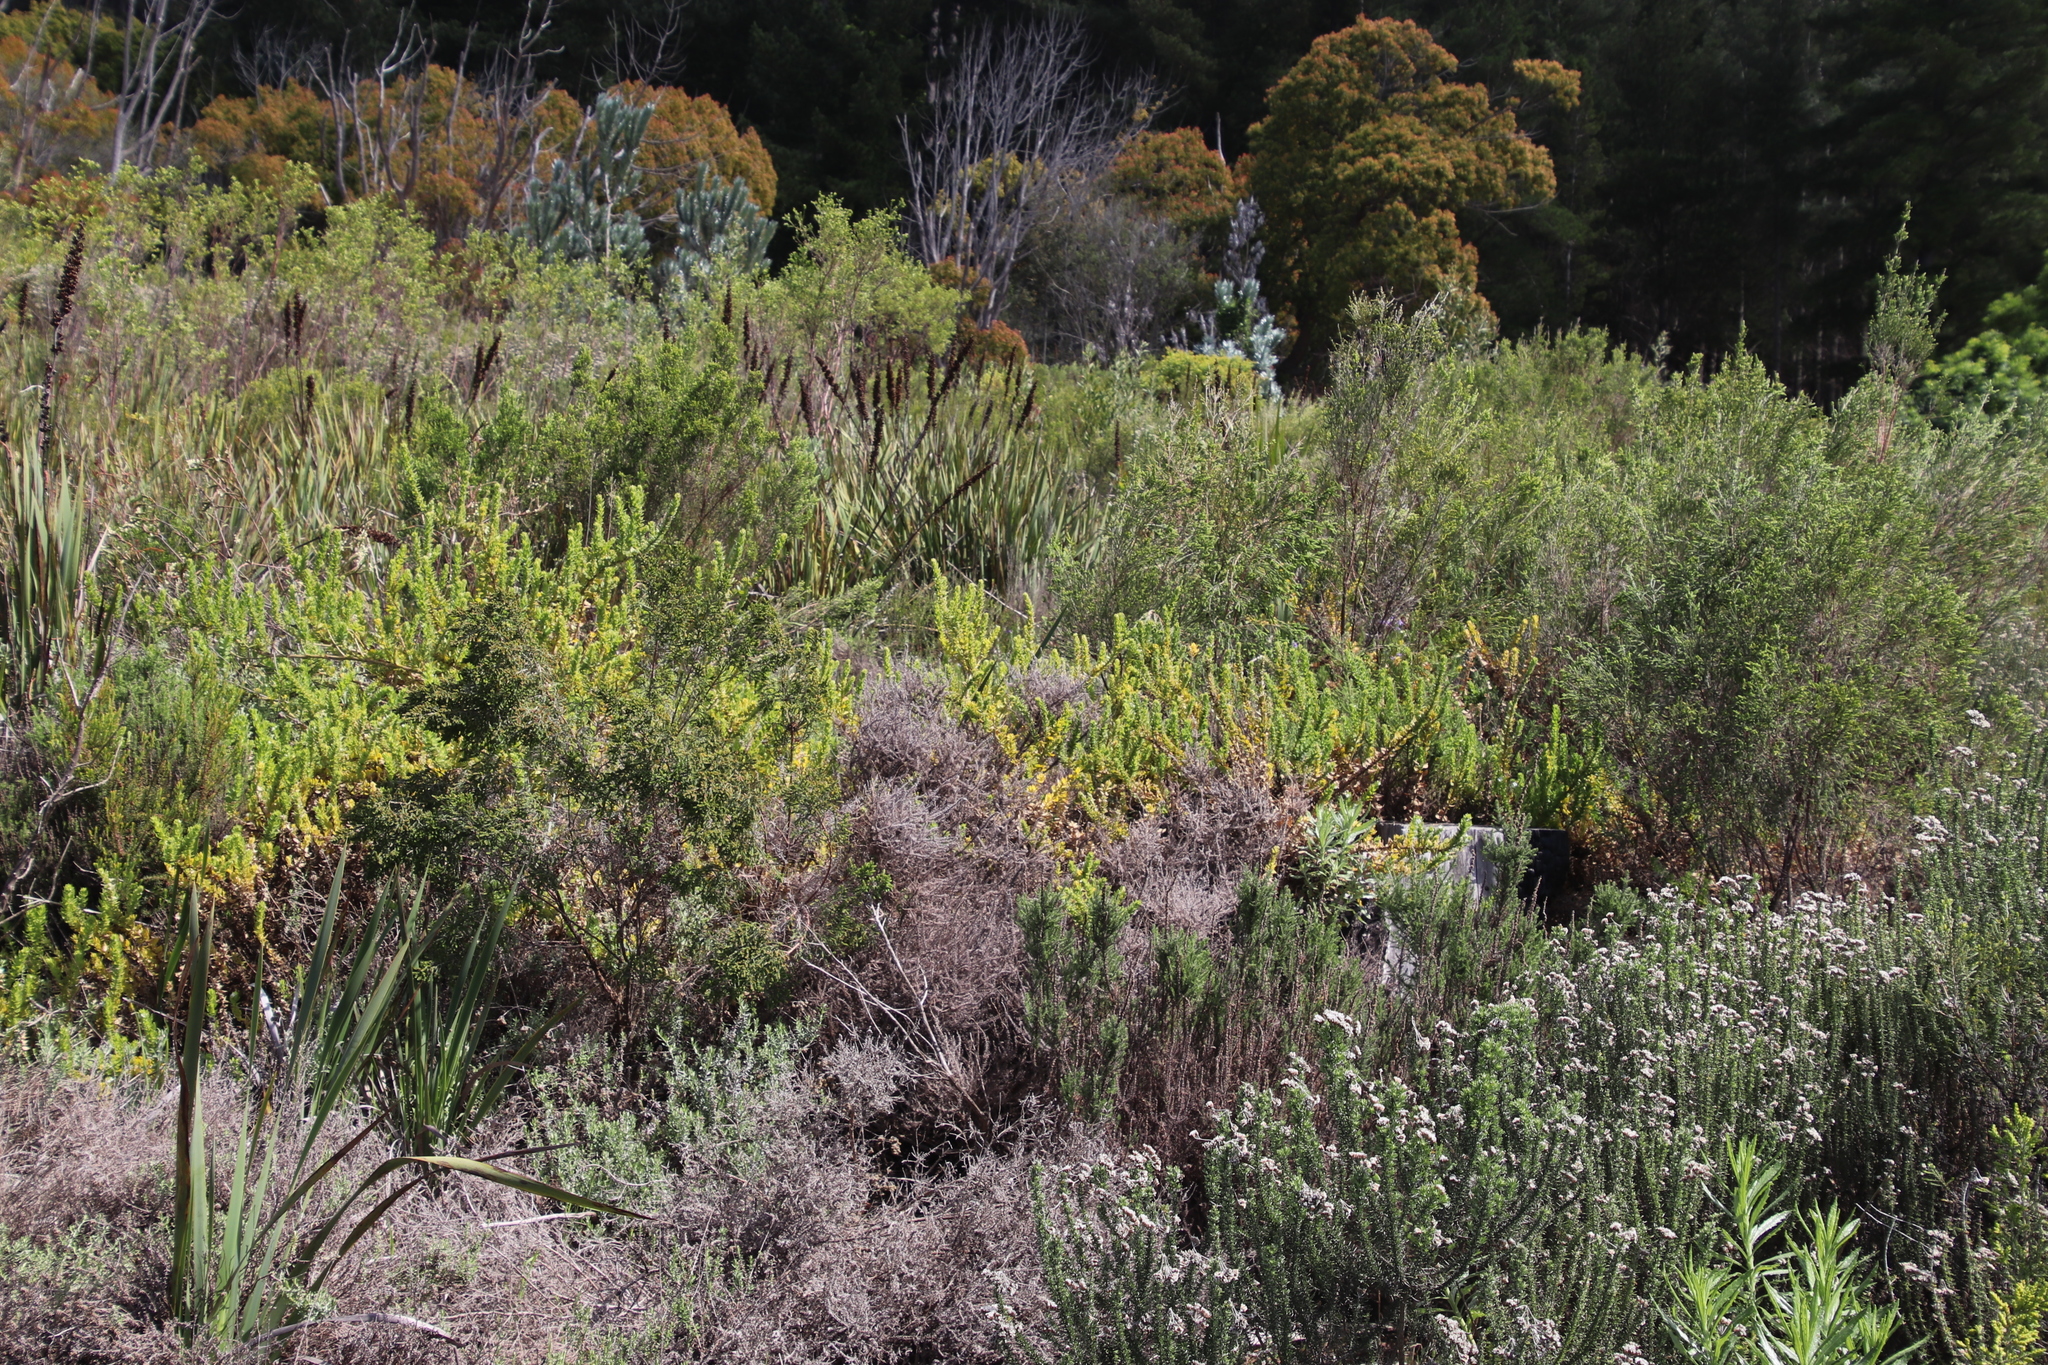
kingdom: Plantae
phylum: Tracheophyta
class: Magnoliopsida
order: Lamiales
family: Scrophulariaceae
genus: Oftia
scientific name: Oftia africana
